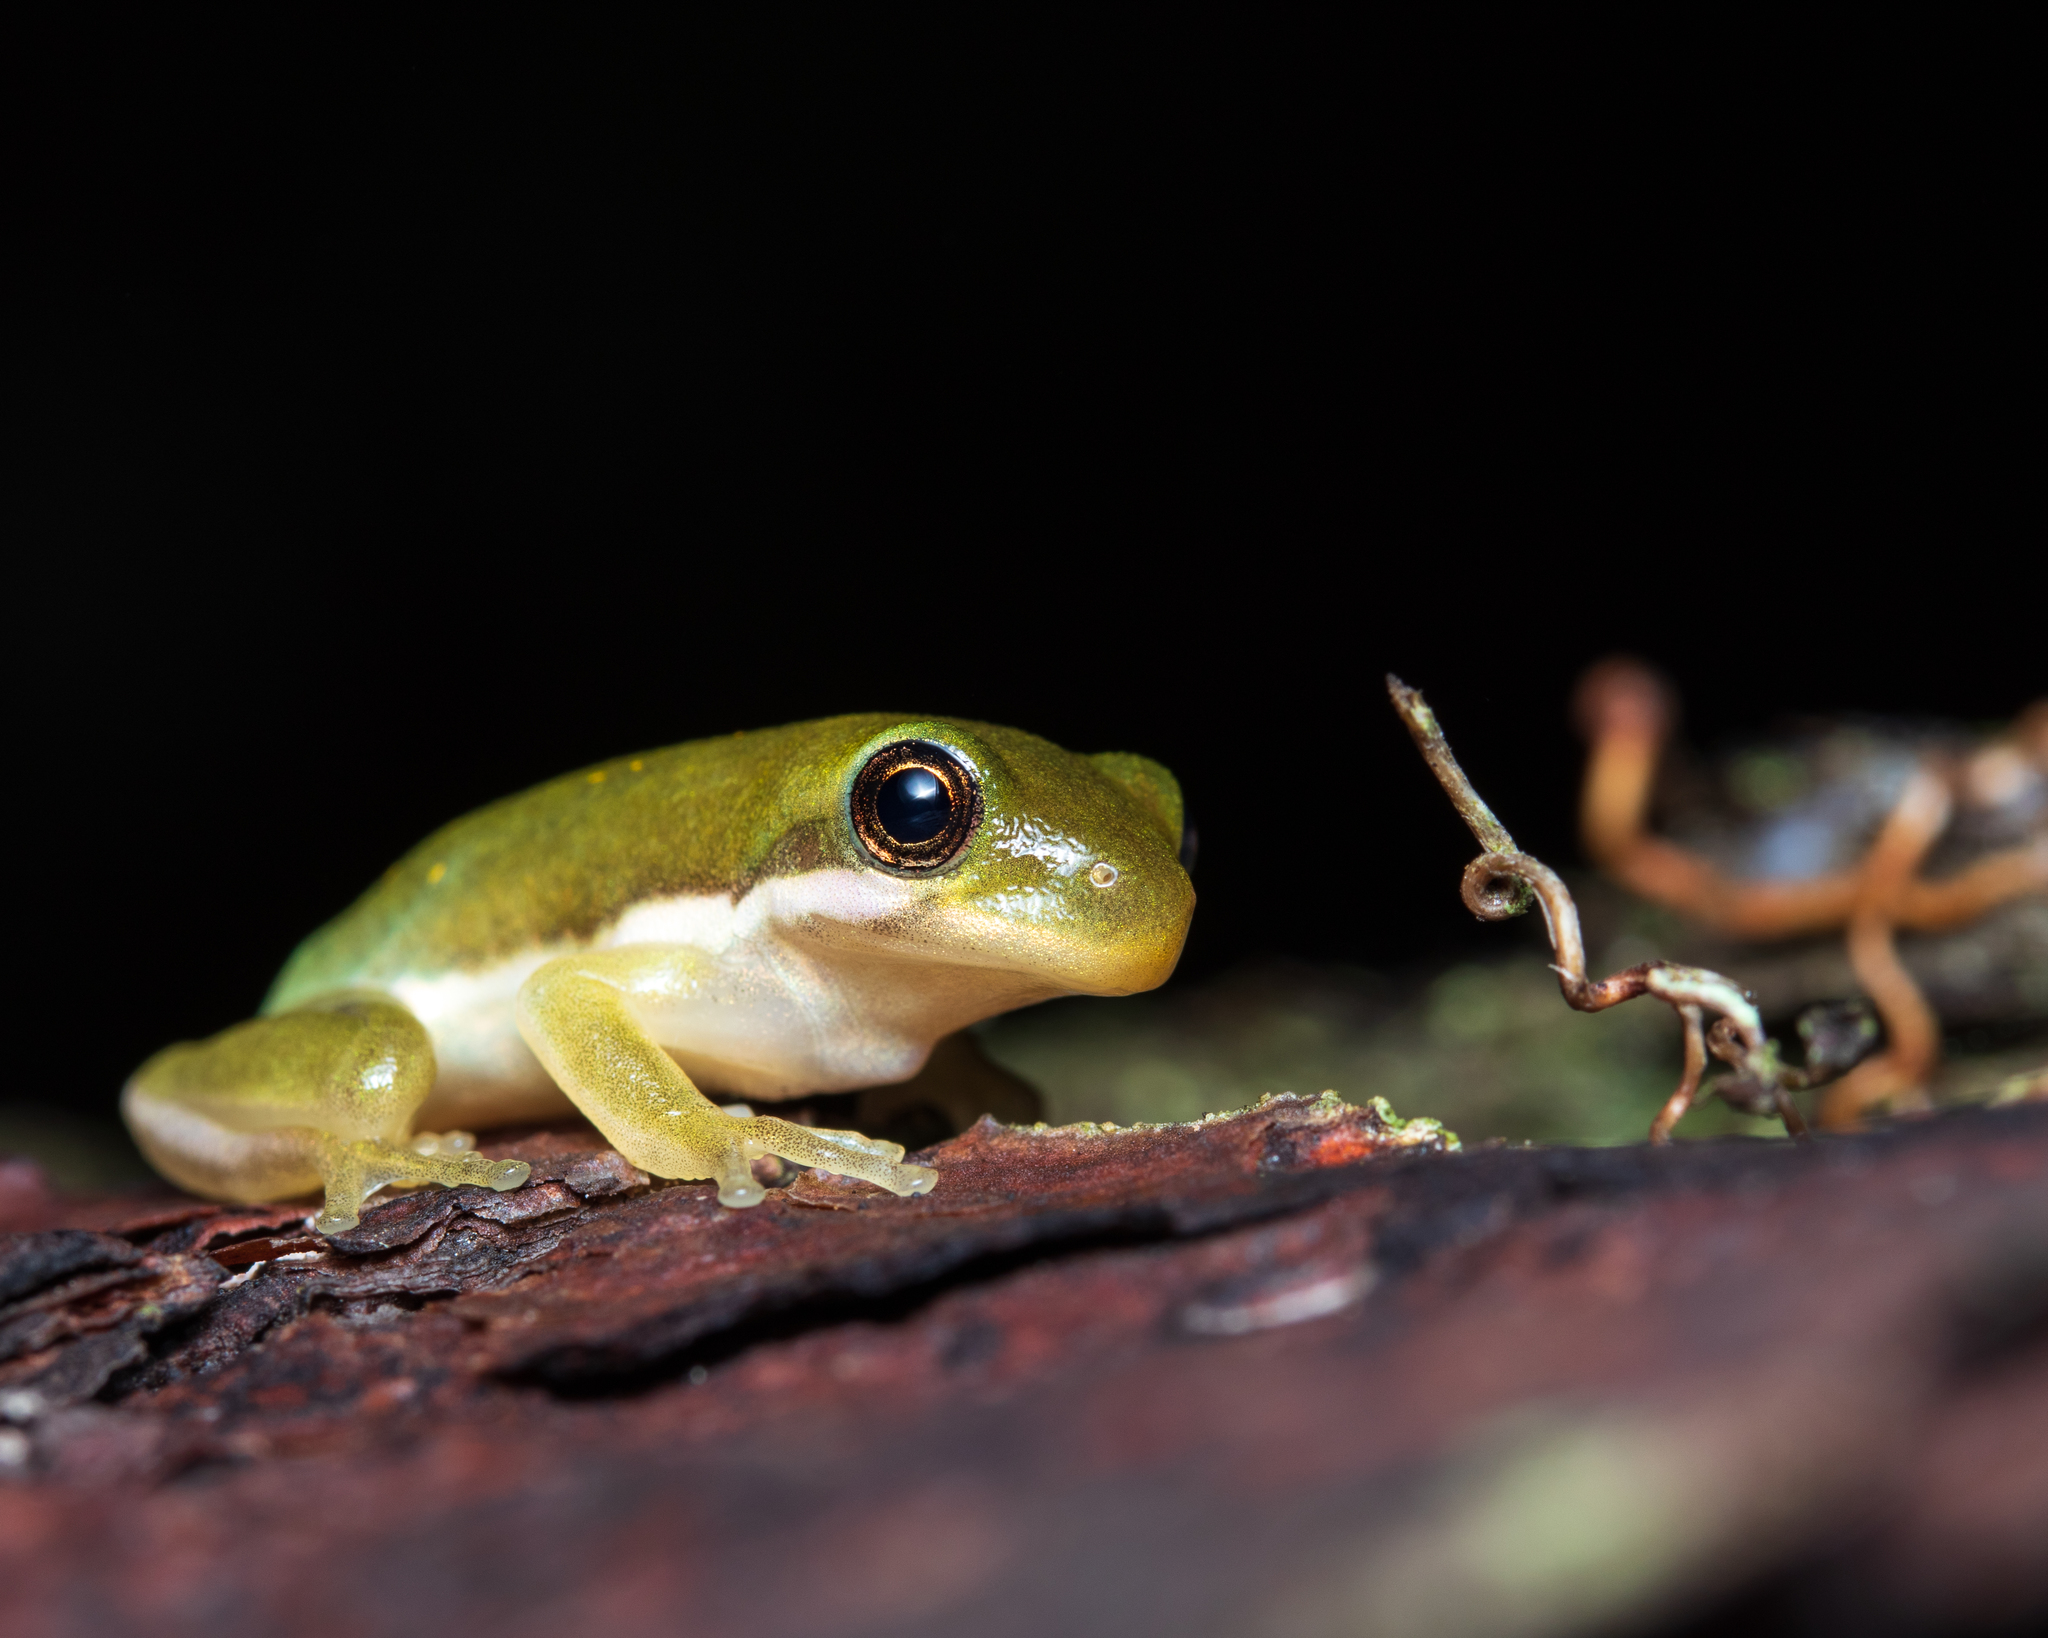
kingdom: Animalia
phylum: Chordata
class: Amphibia
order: Anura
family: Hylidae
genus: Dryophytes
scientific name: Dryophytes cinereus
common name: Green treefrog
